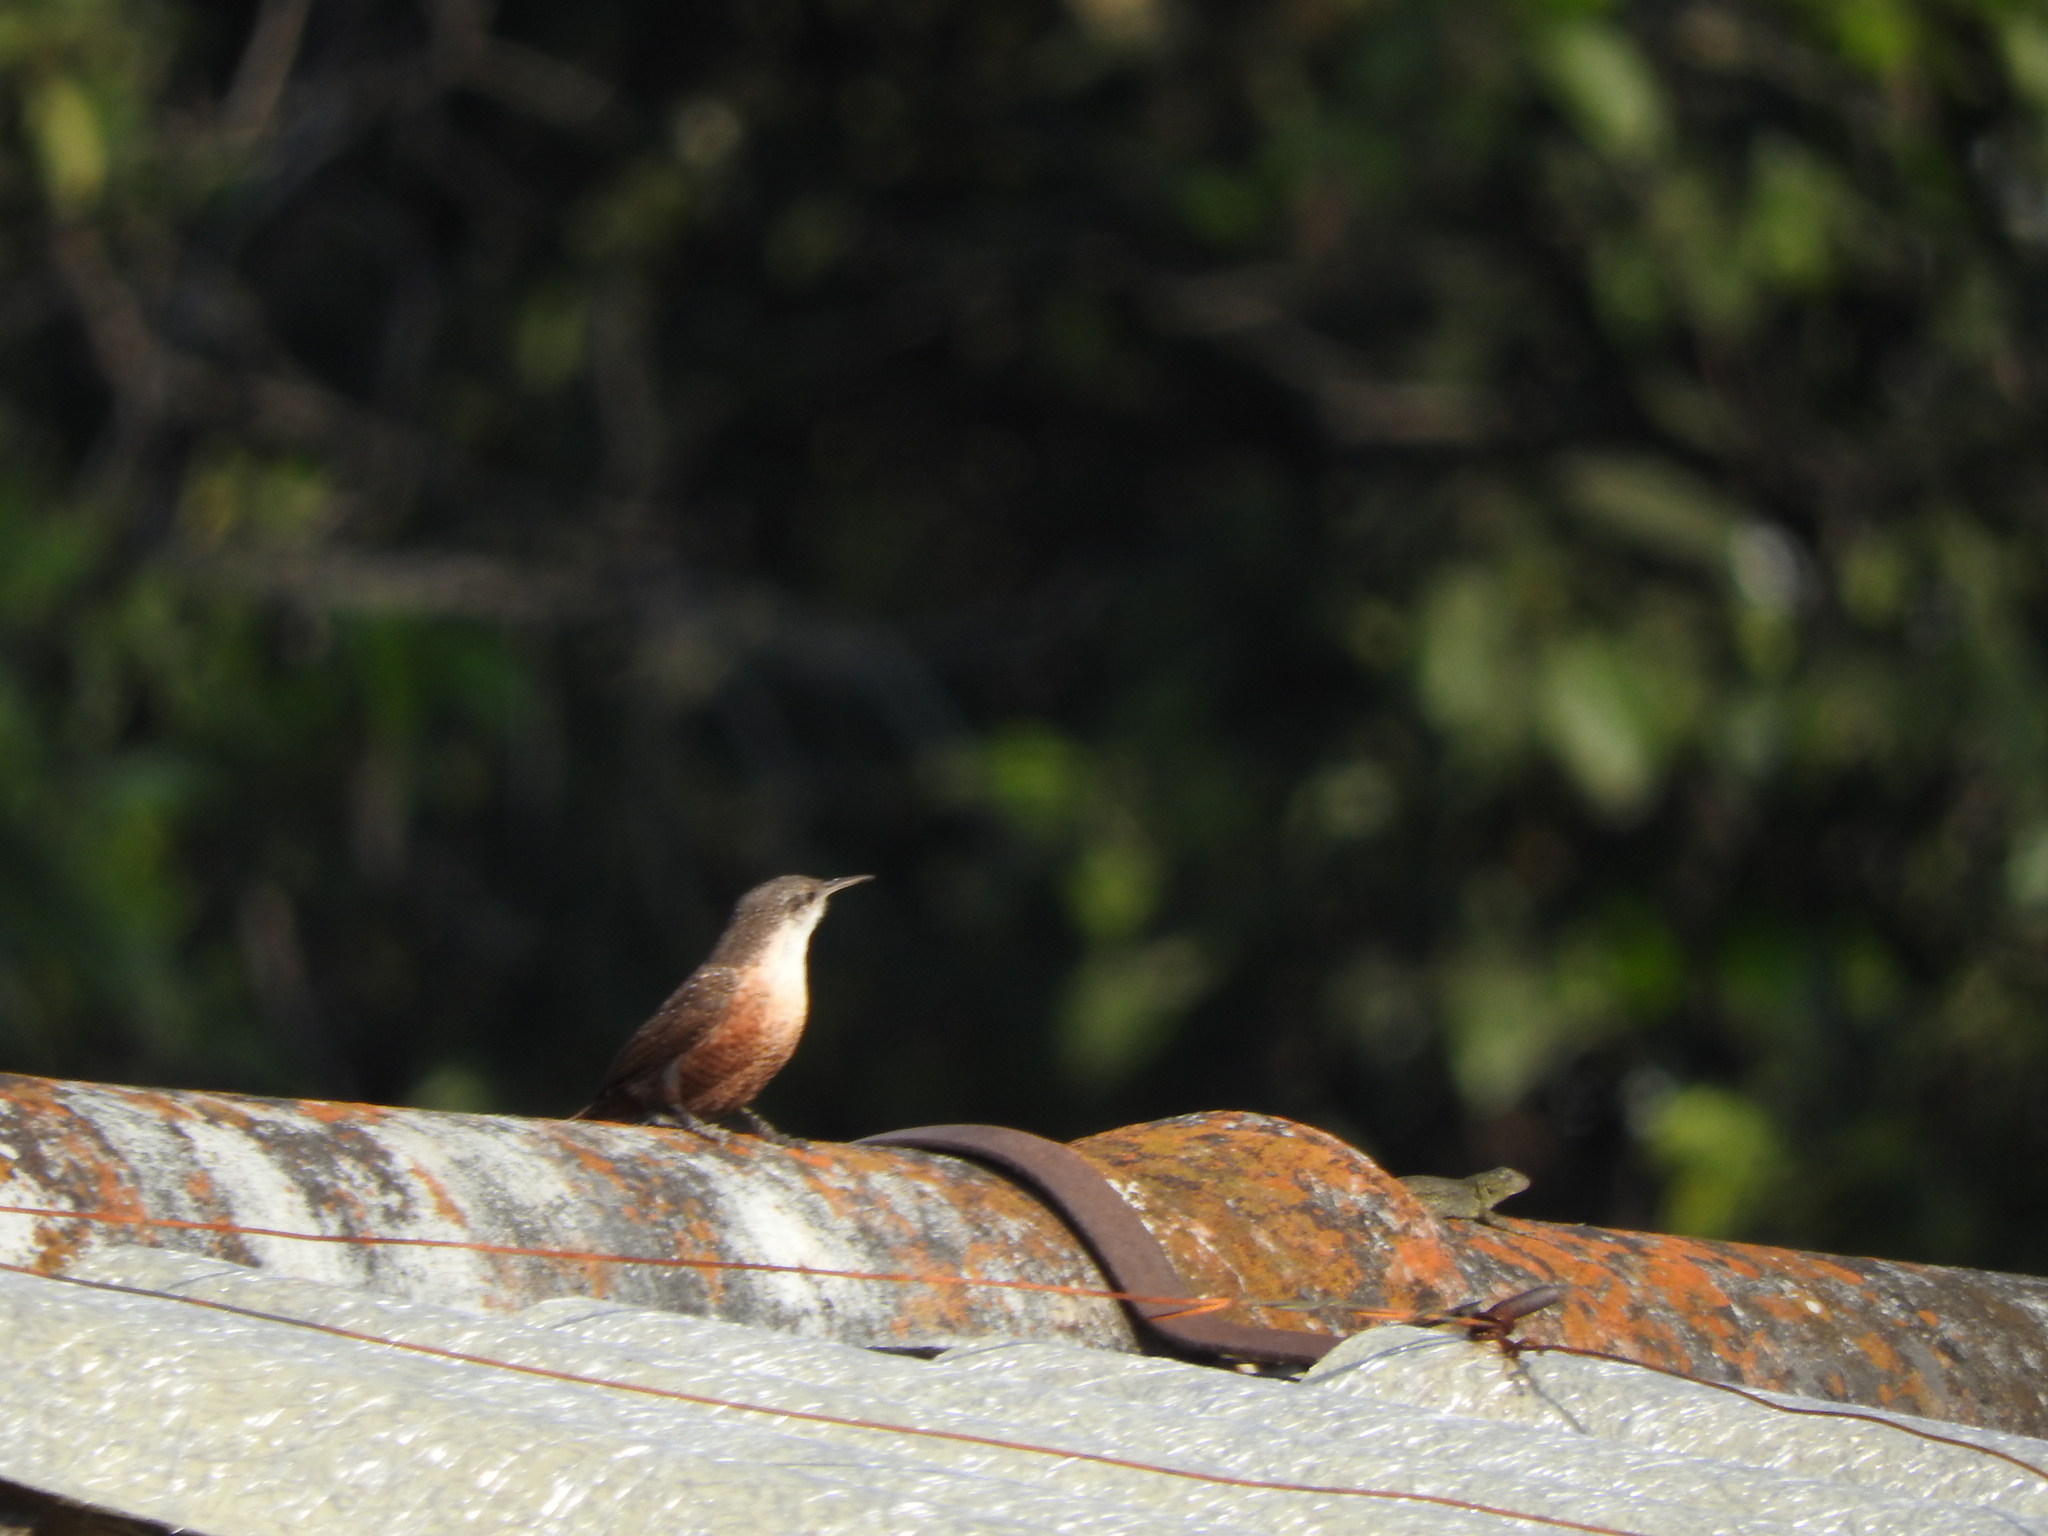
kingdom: Animalia
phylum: Chordata
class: Aves
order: Passeriformes
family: Troglodytidae
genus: Catherpes
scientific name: Catherpes mexicanus
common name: Canyon wren
